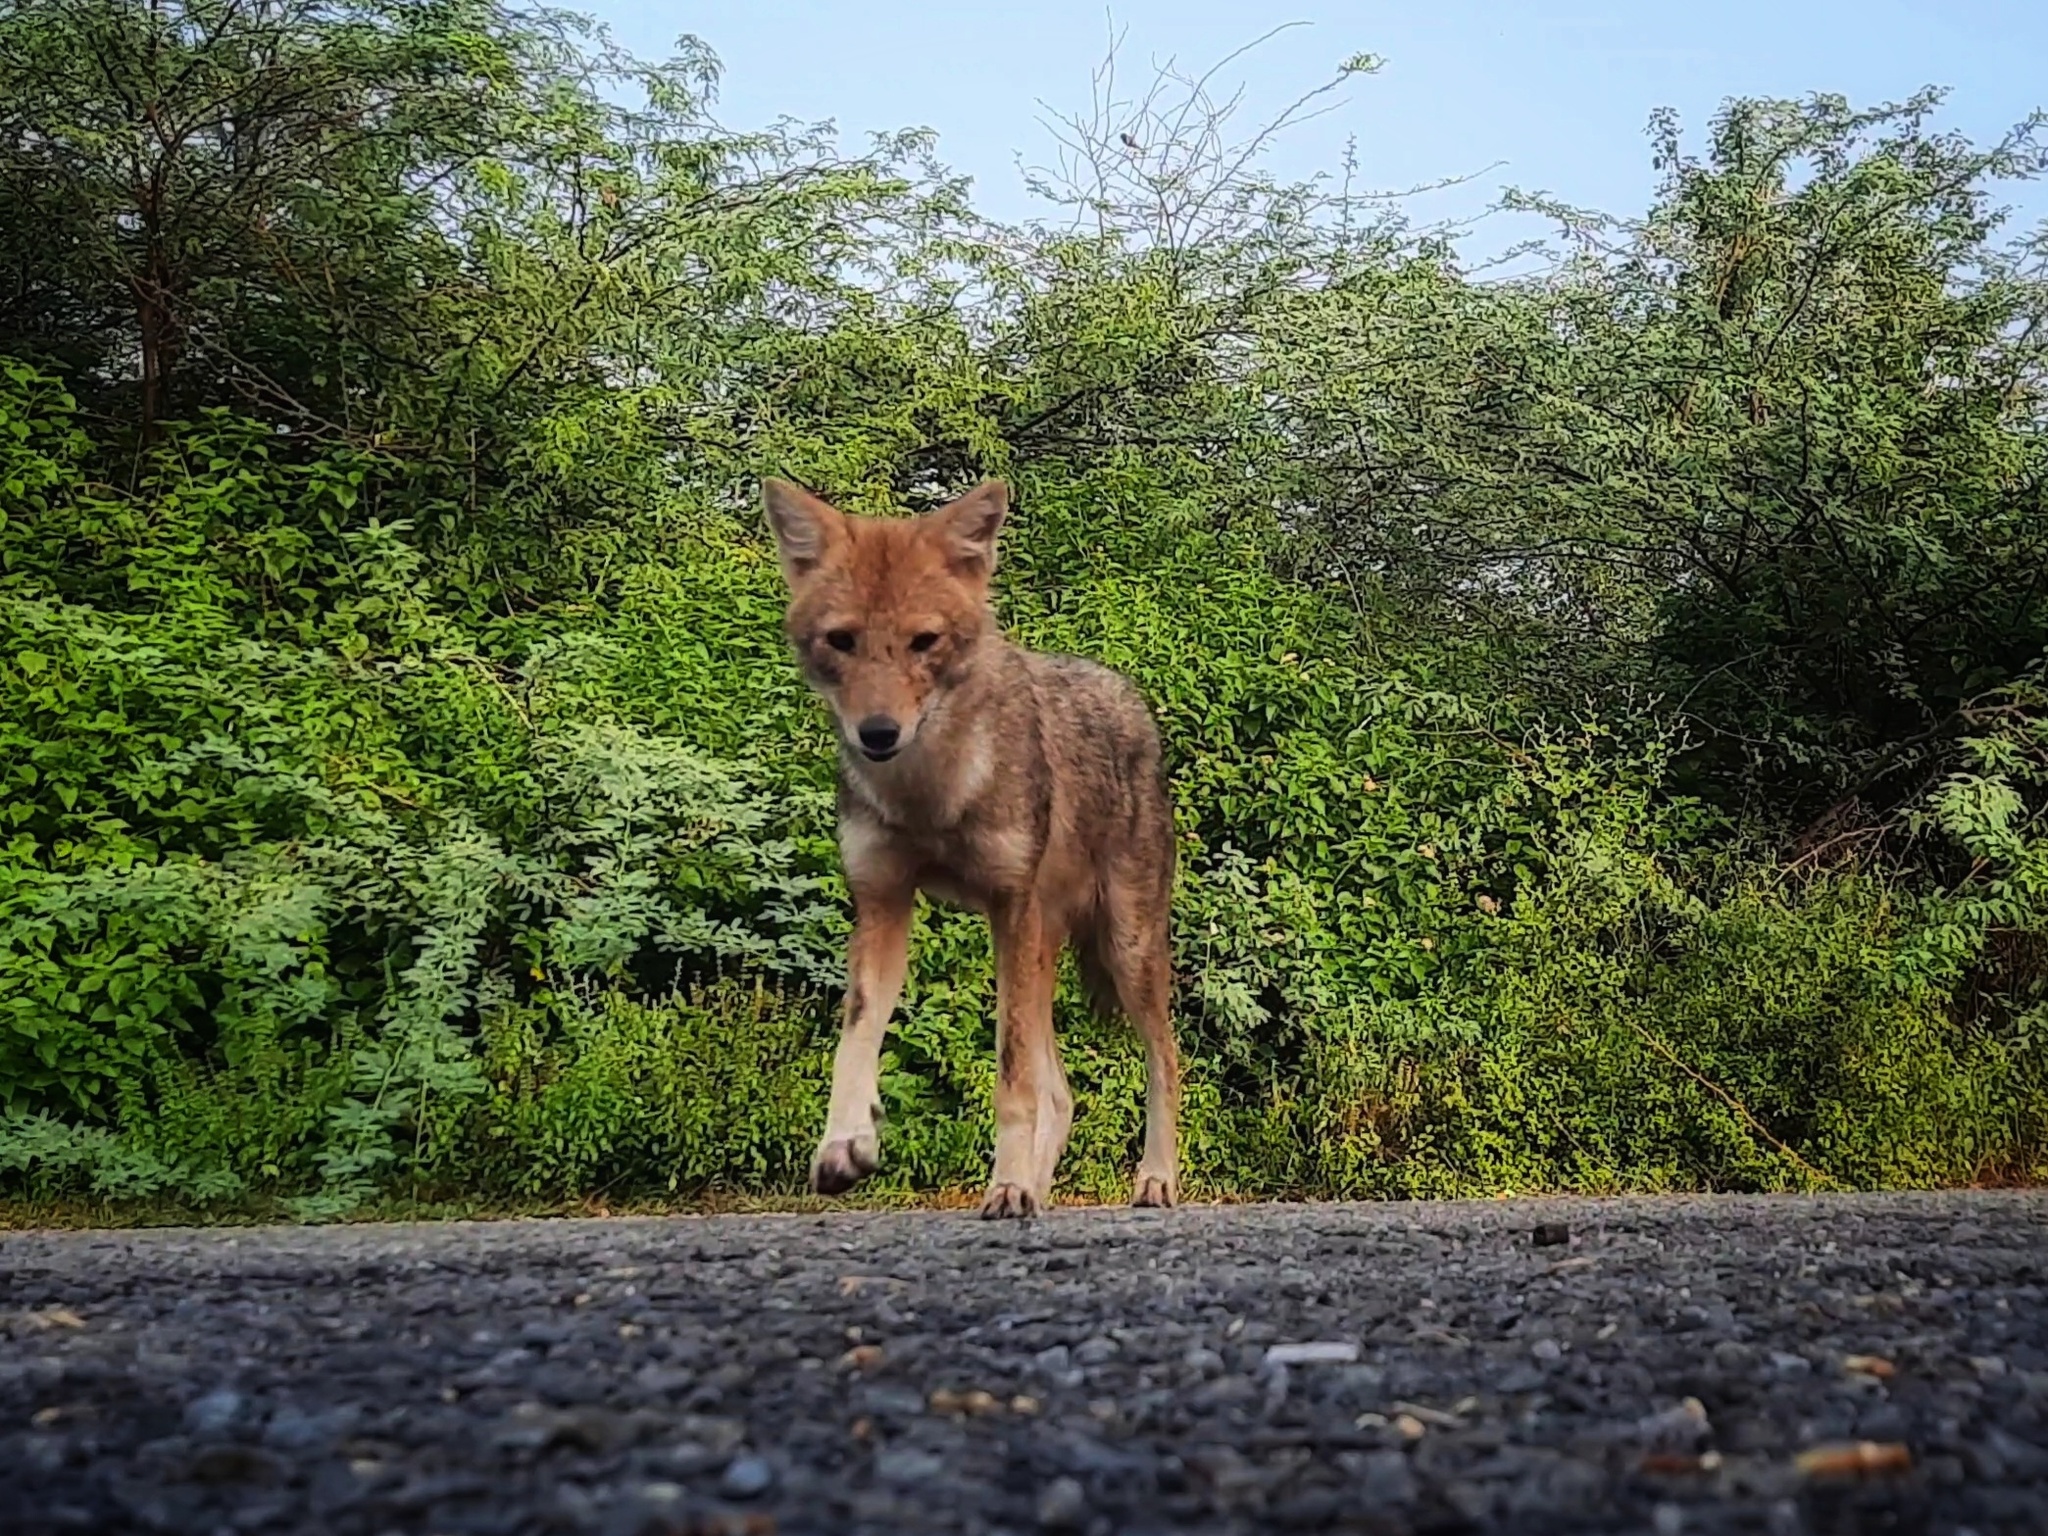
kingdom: Animalia
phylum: Chordata
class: Mammalia
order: Carnivora
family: Canidae
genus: Canis
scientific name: Canis aureus
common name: Golden jackal
